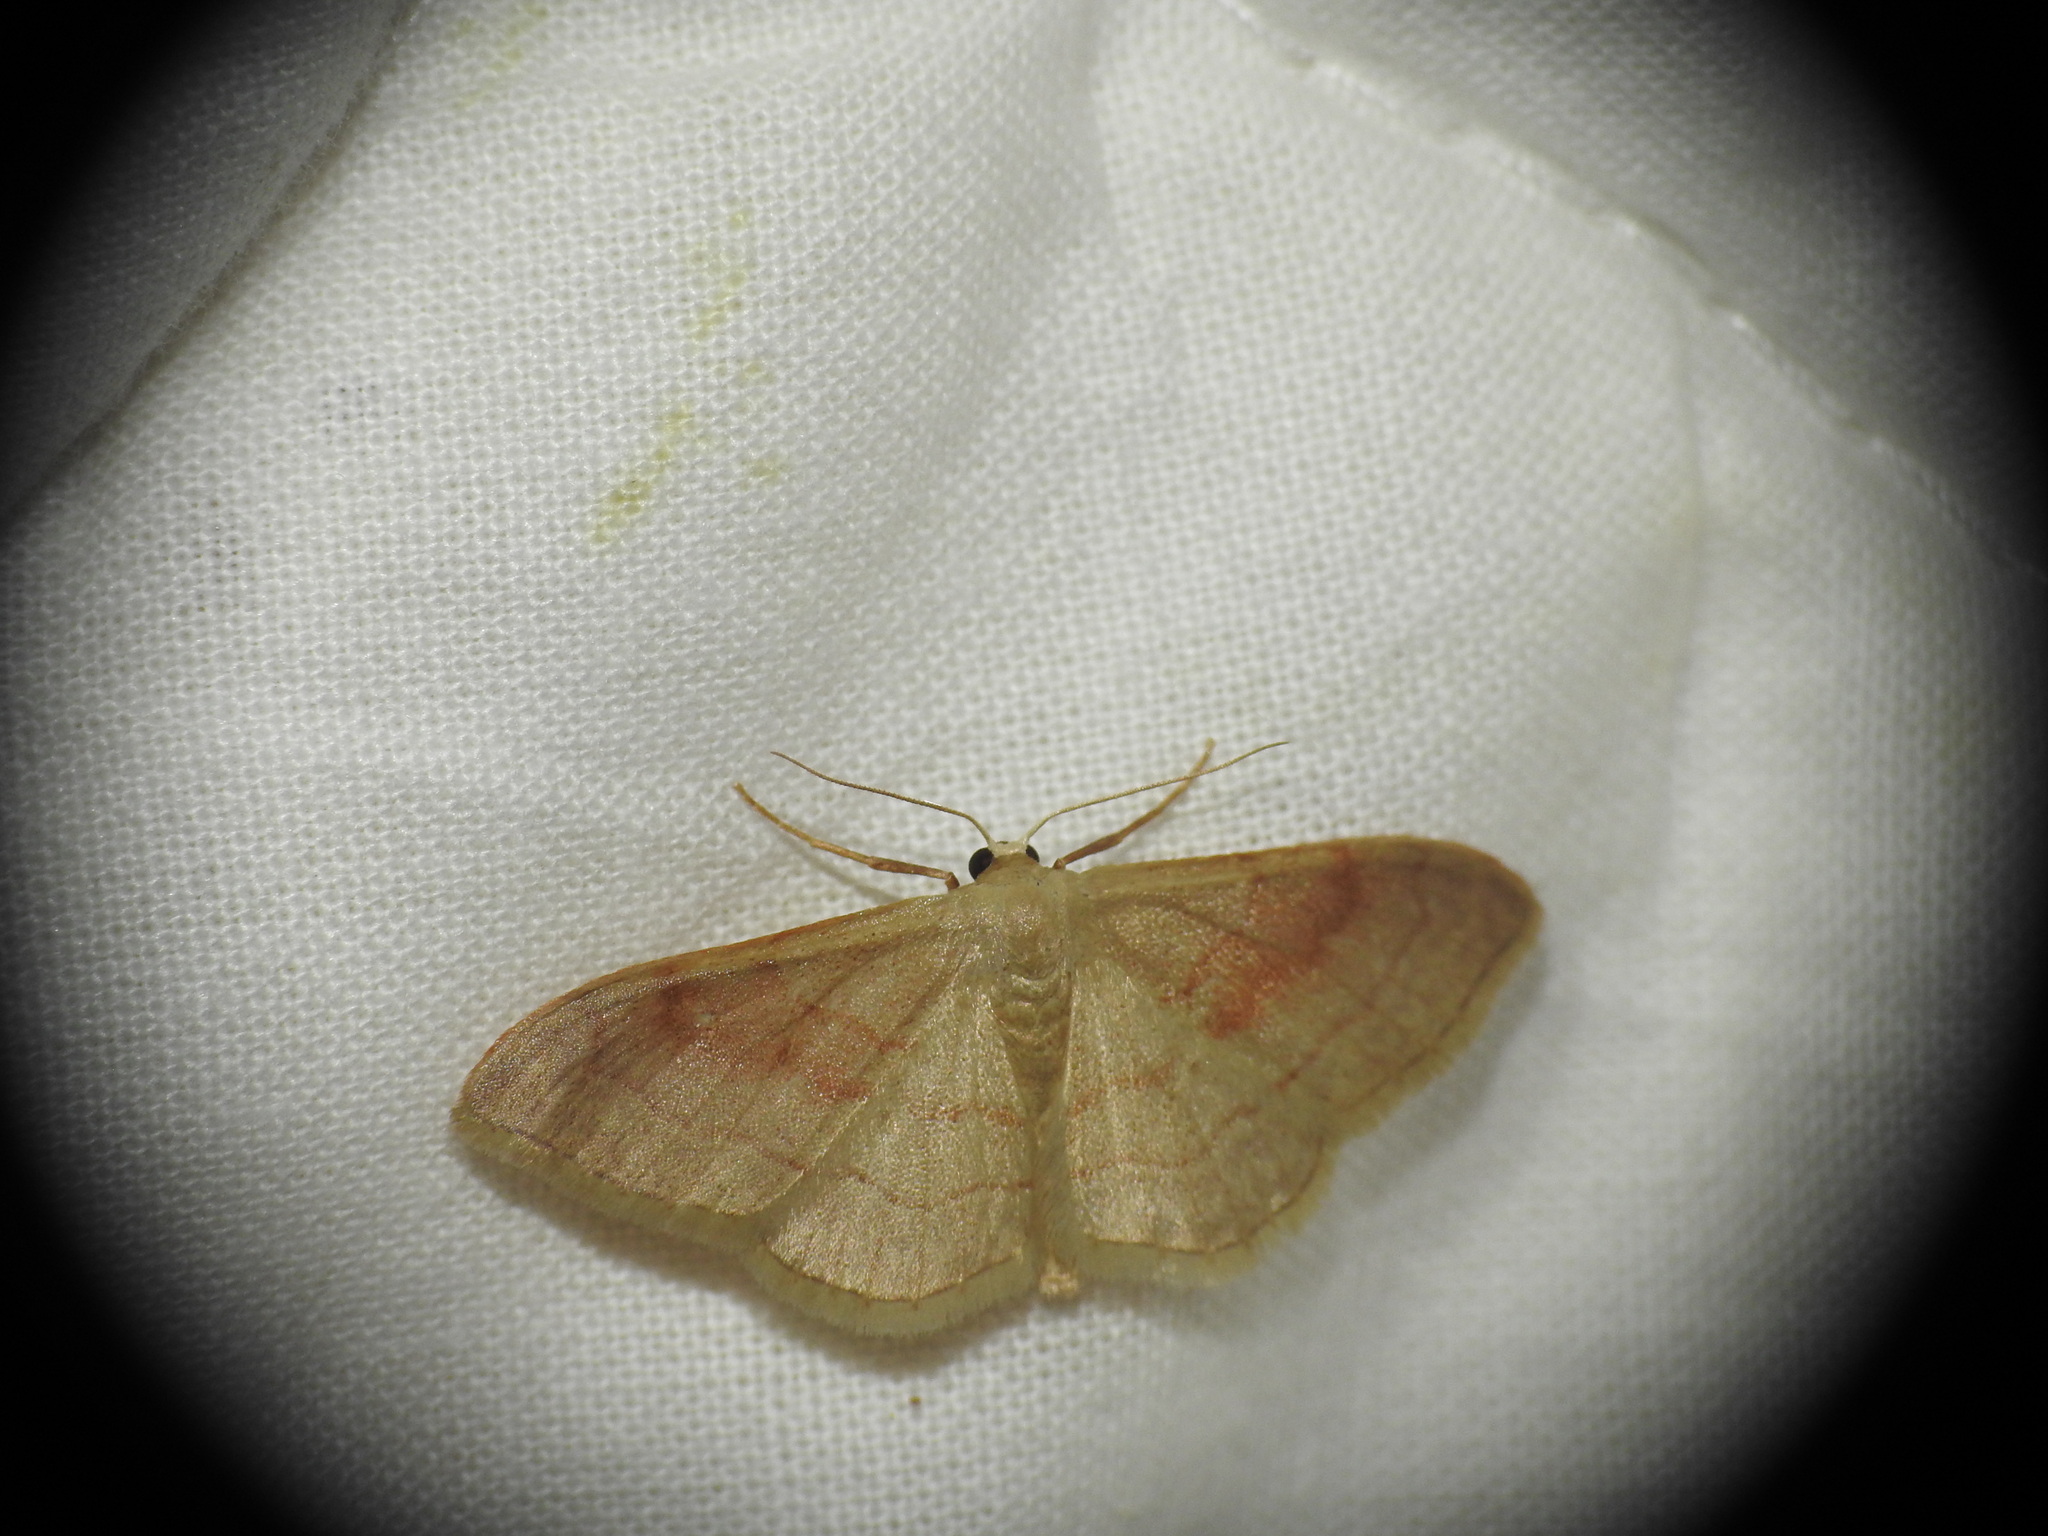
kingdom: Animalia
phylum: Arthropoda
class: Insecta
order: Lepidoptera
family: Geometridae
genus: Idaea
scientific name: Idaea bilinearia
